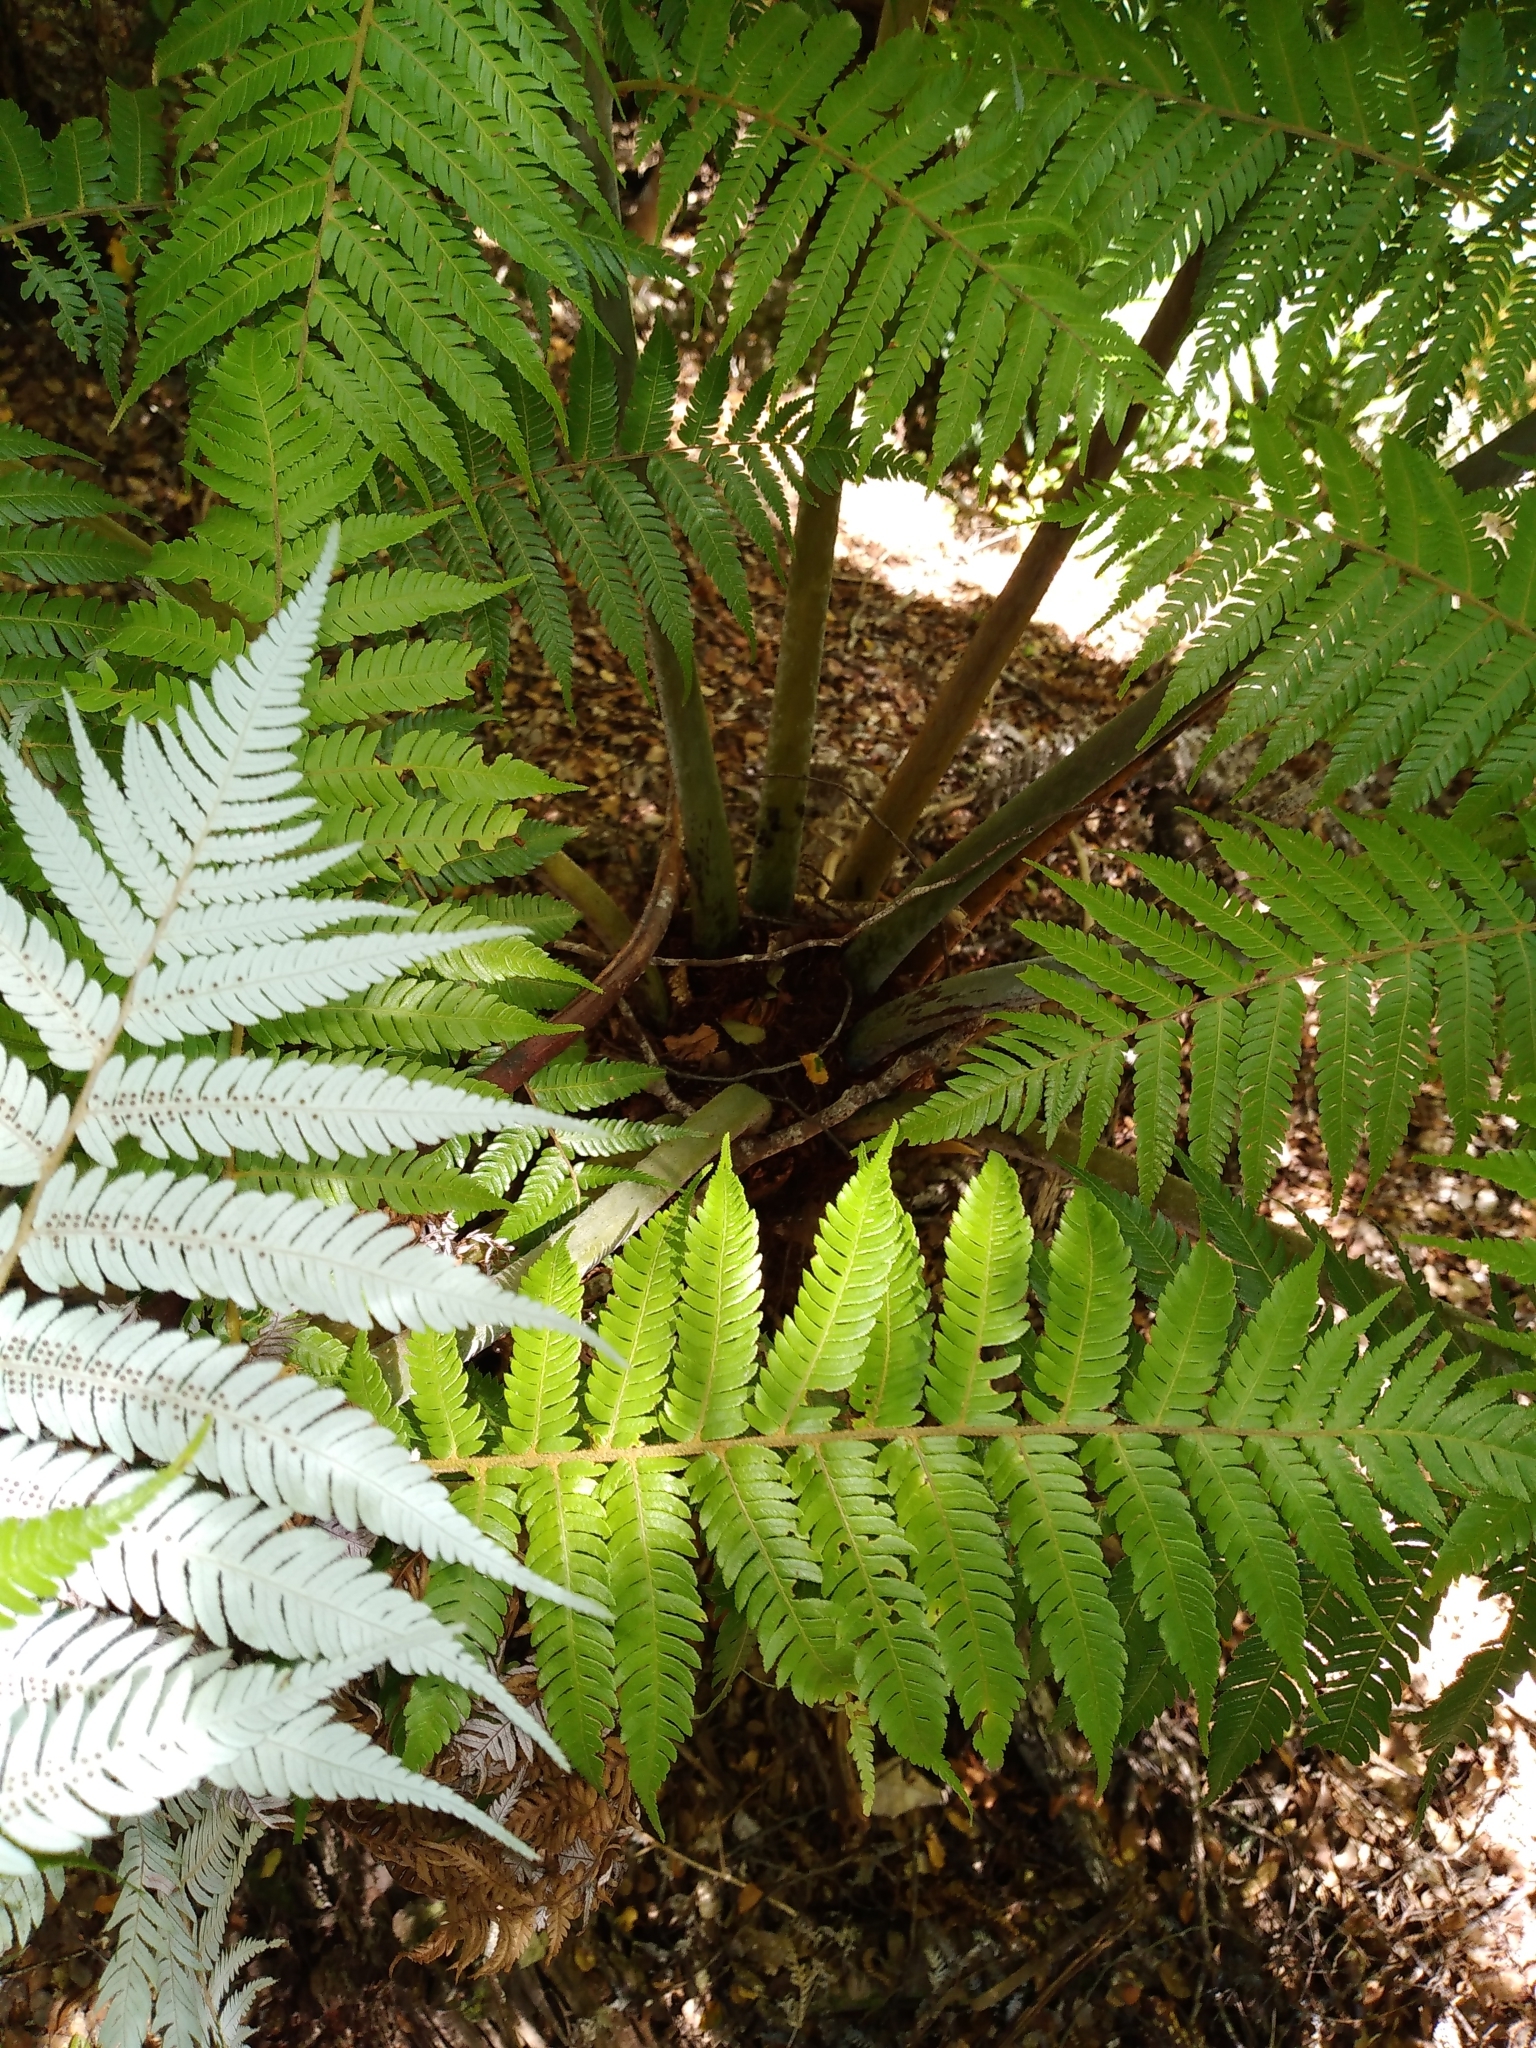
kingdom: Plantae
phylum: Tracheophyta
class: Polypodiopsida
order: Cyatheales
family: Cyatheaceae
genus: Alsophila
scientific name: Alsophila dealbata
